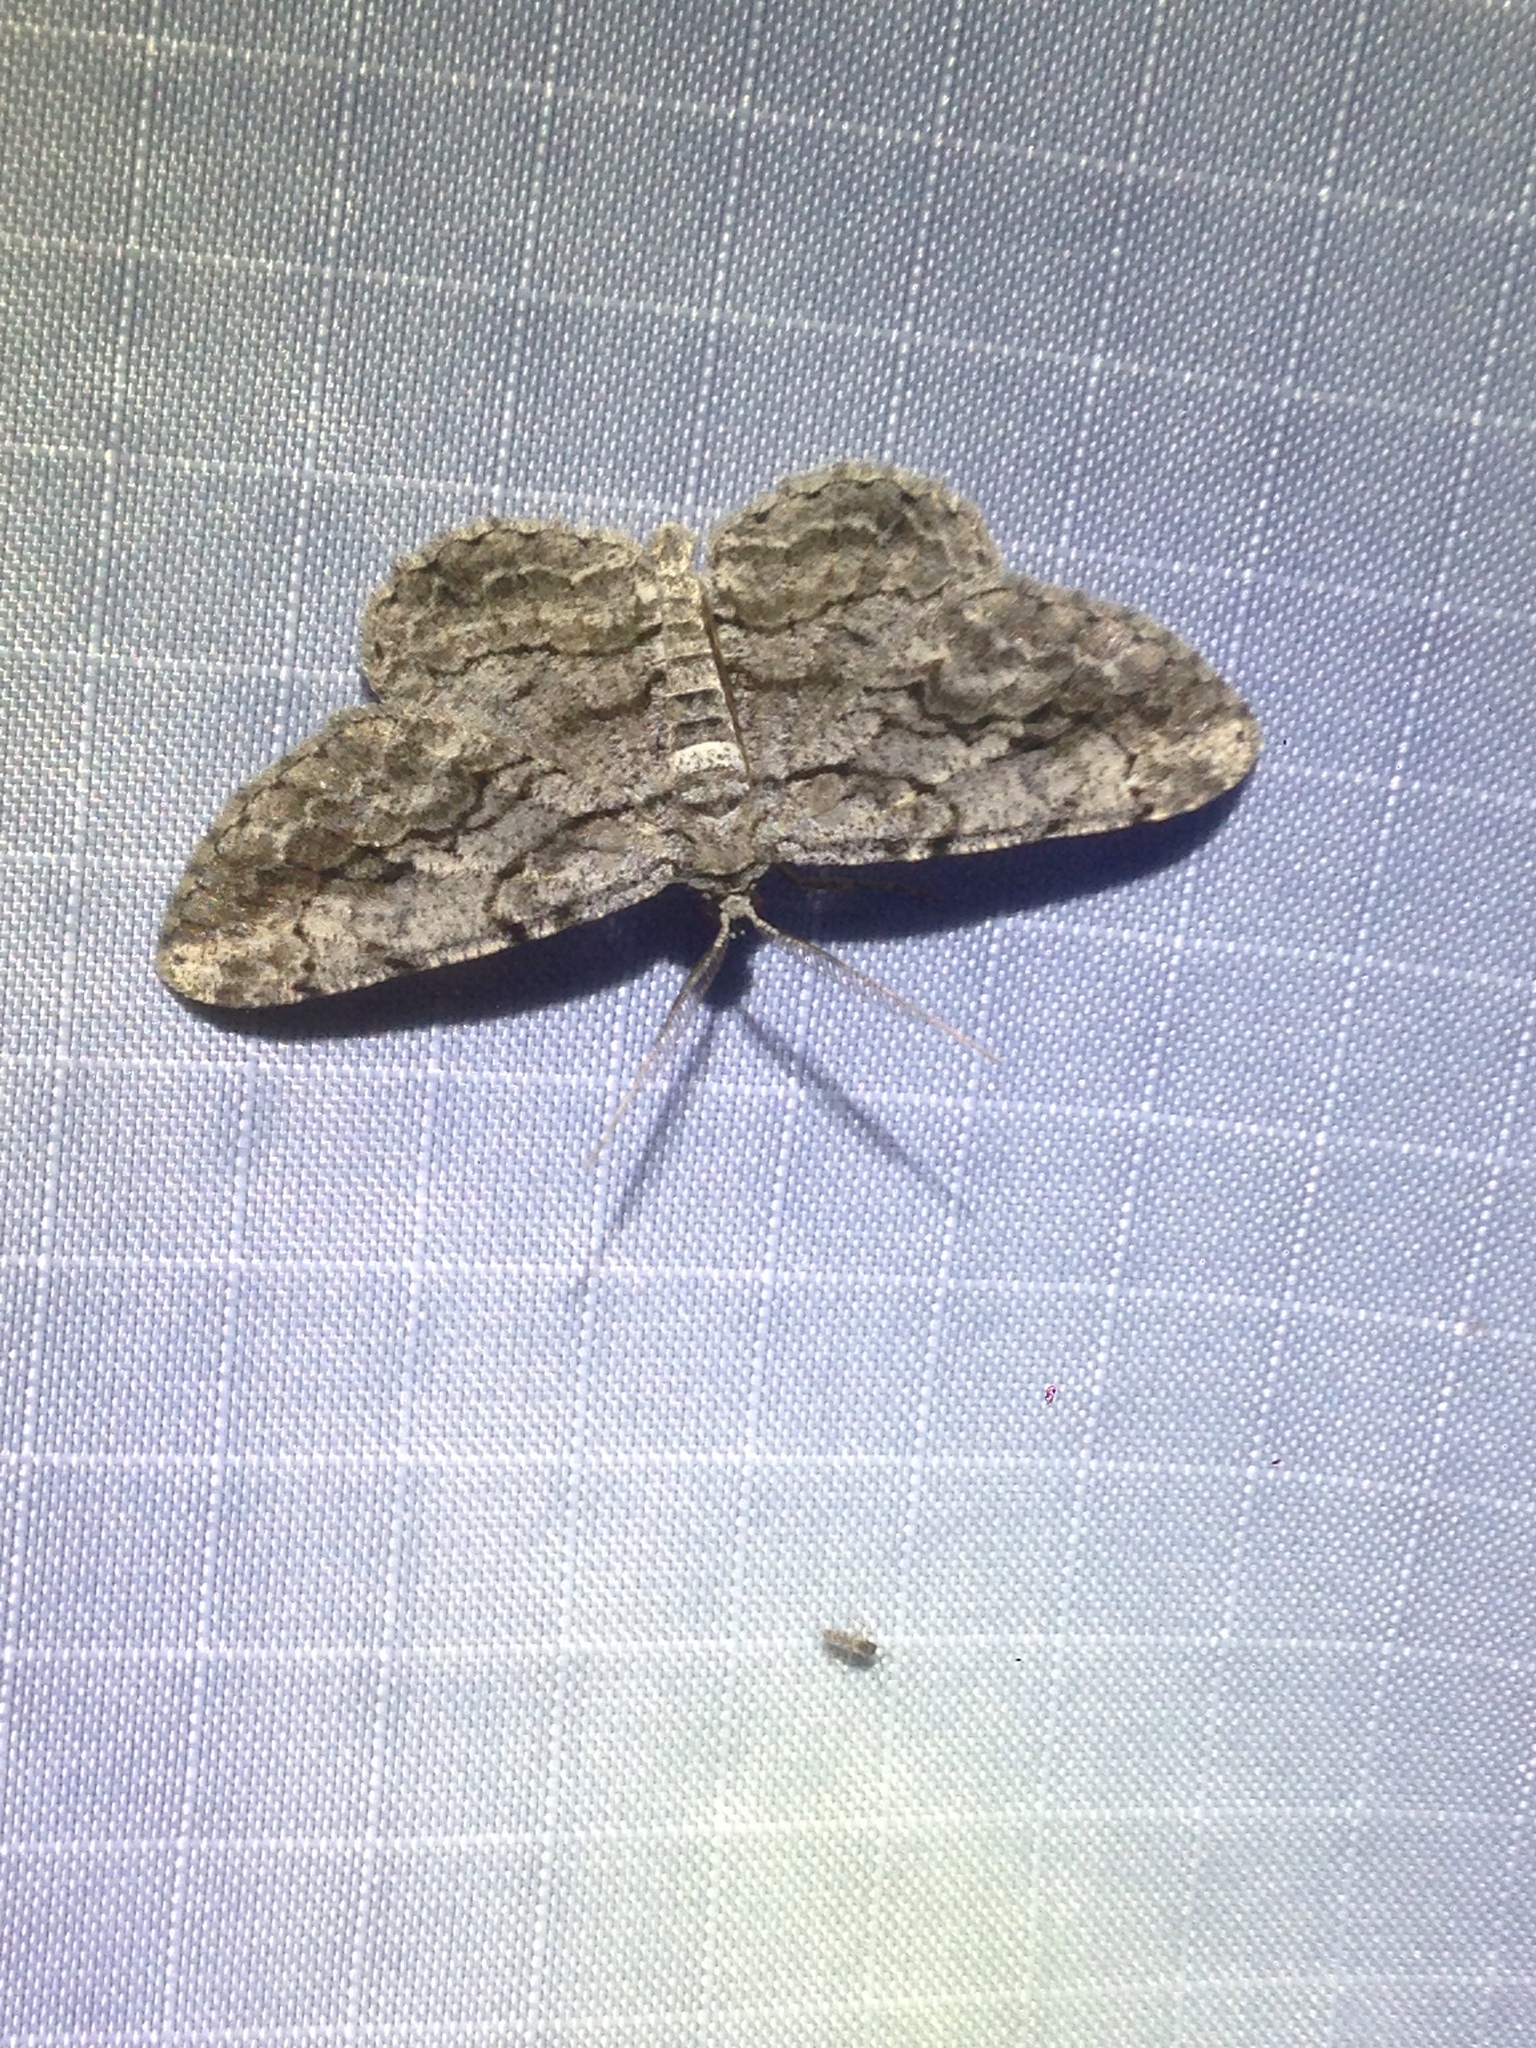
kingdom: Animalia
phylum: Arthropoda
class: Insecta
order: Lepidoptera
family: Geometridae
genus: Anavitrinella
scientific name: Anavitrinella pampinaria
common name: Common gray
